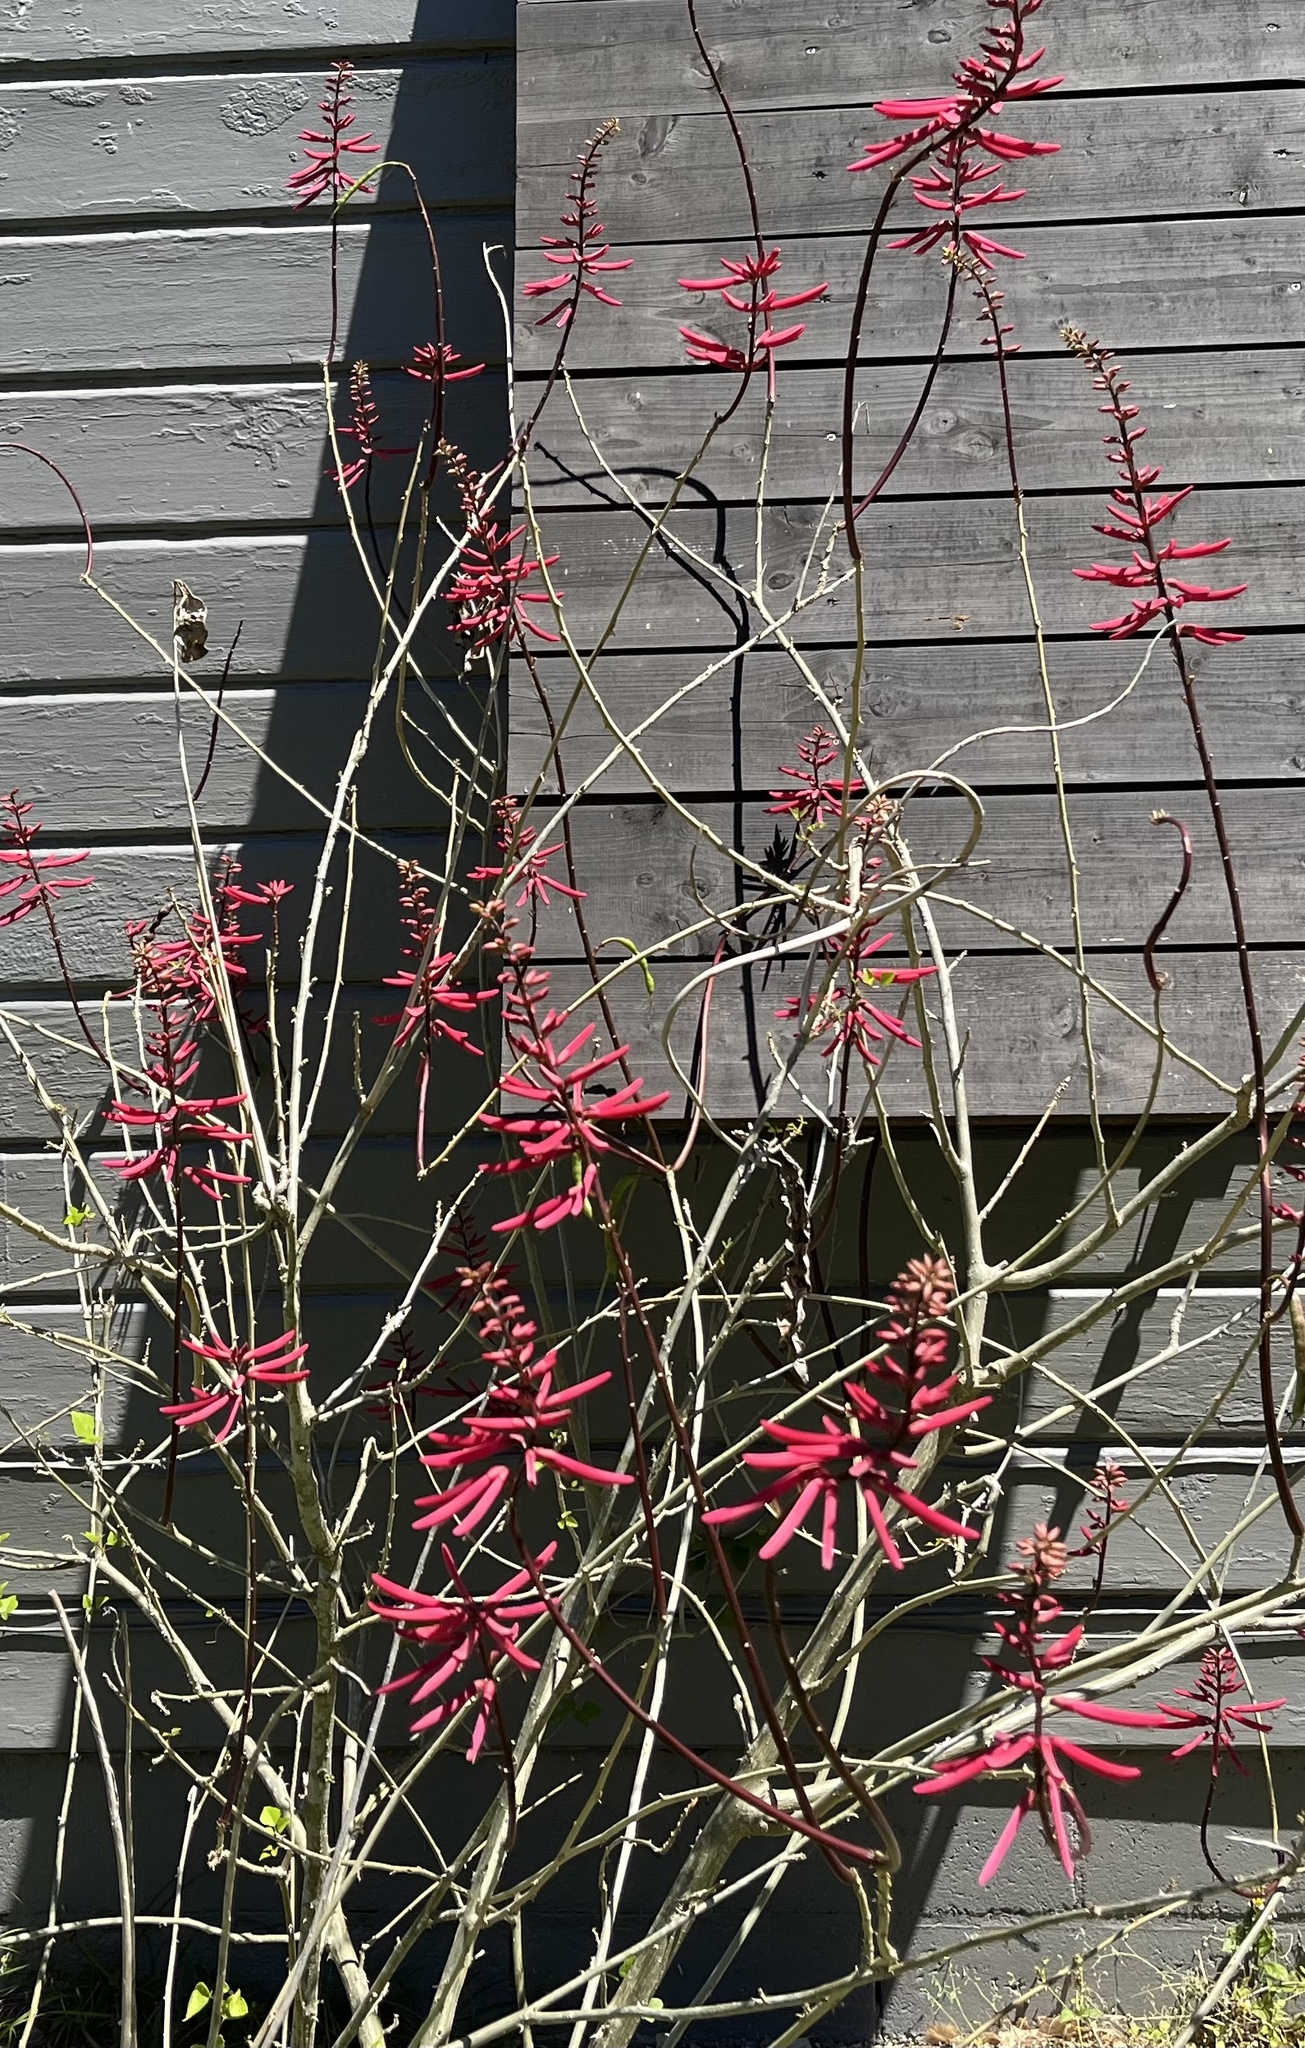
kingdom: Plantae
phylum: Tracheophyta
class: Magnoliopsida
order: Fabales
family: Fabaceae
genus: Erythrina
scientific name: Erythrina herbacea
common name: Coral-bean
